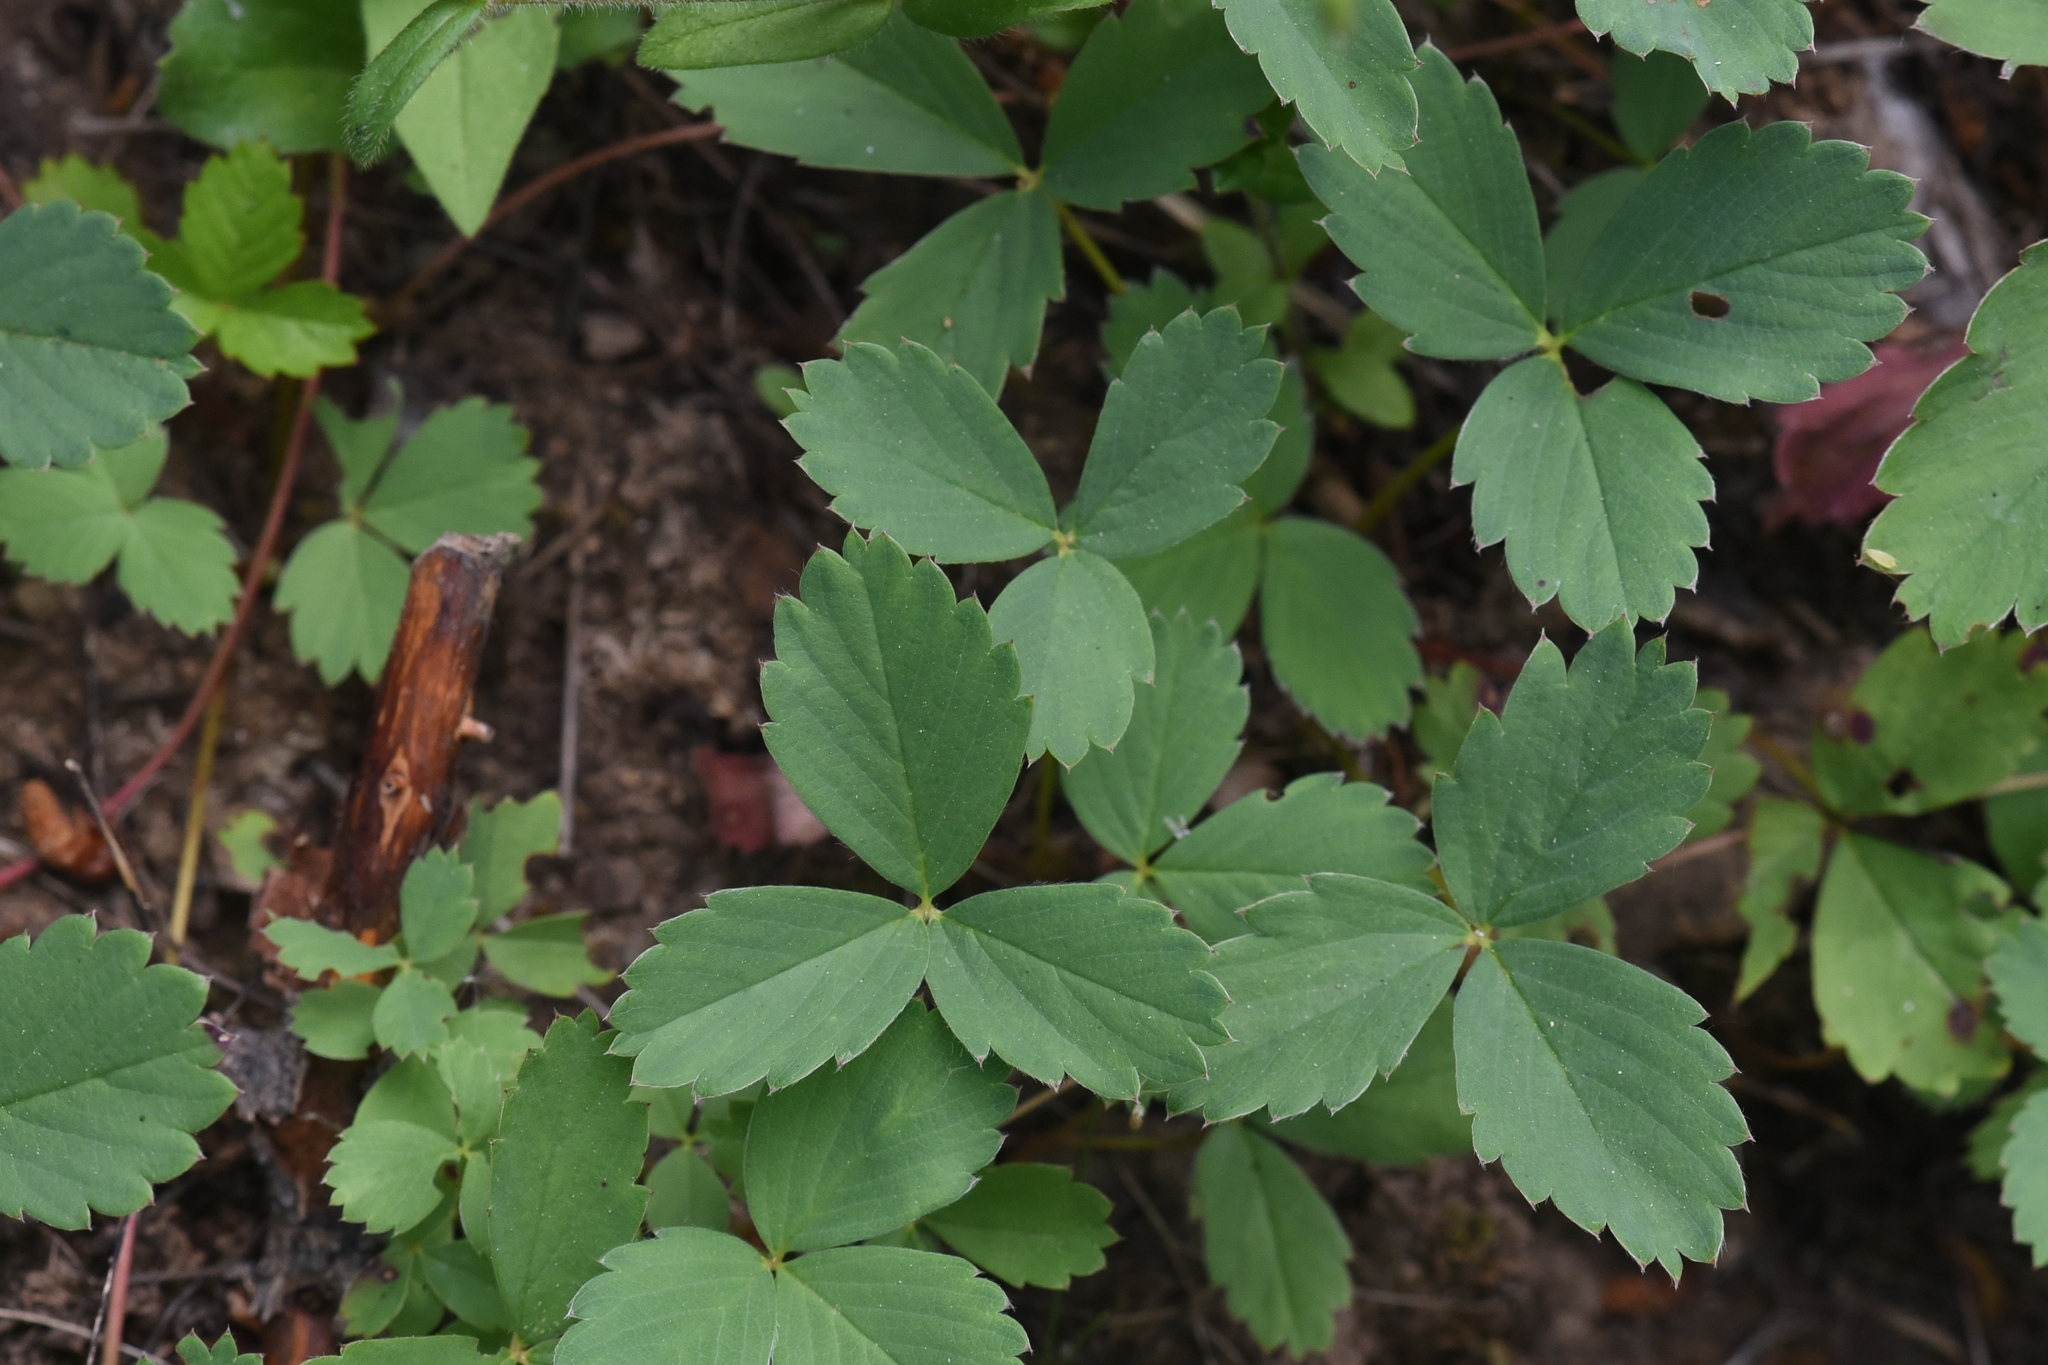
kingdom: Plantae
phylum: Tracheophyta
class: Magnoliopsida
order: Rosales
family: Rosaceae
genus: Fragaria
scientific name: Fragaria virginiana
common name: Thickleaved wild strawberry
